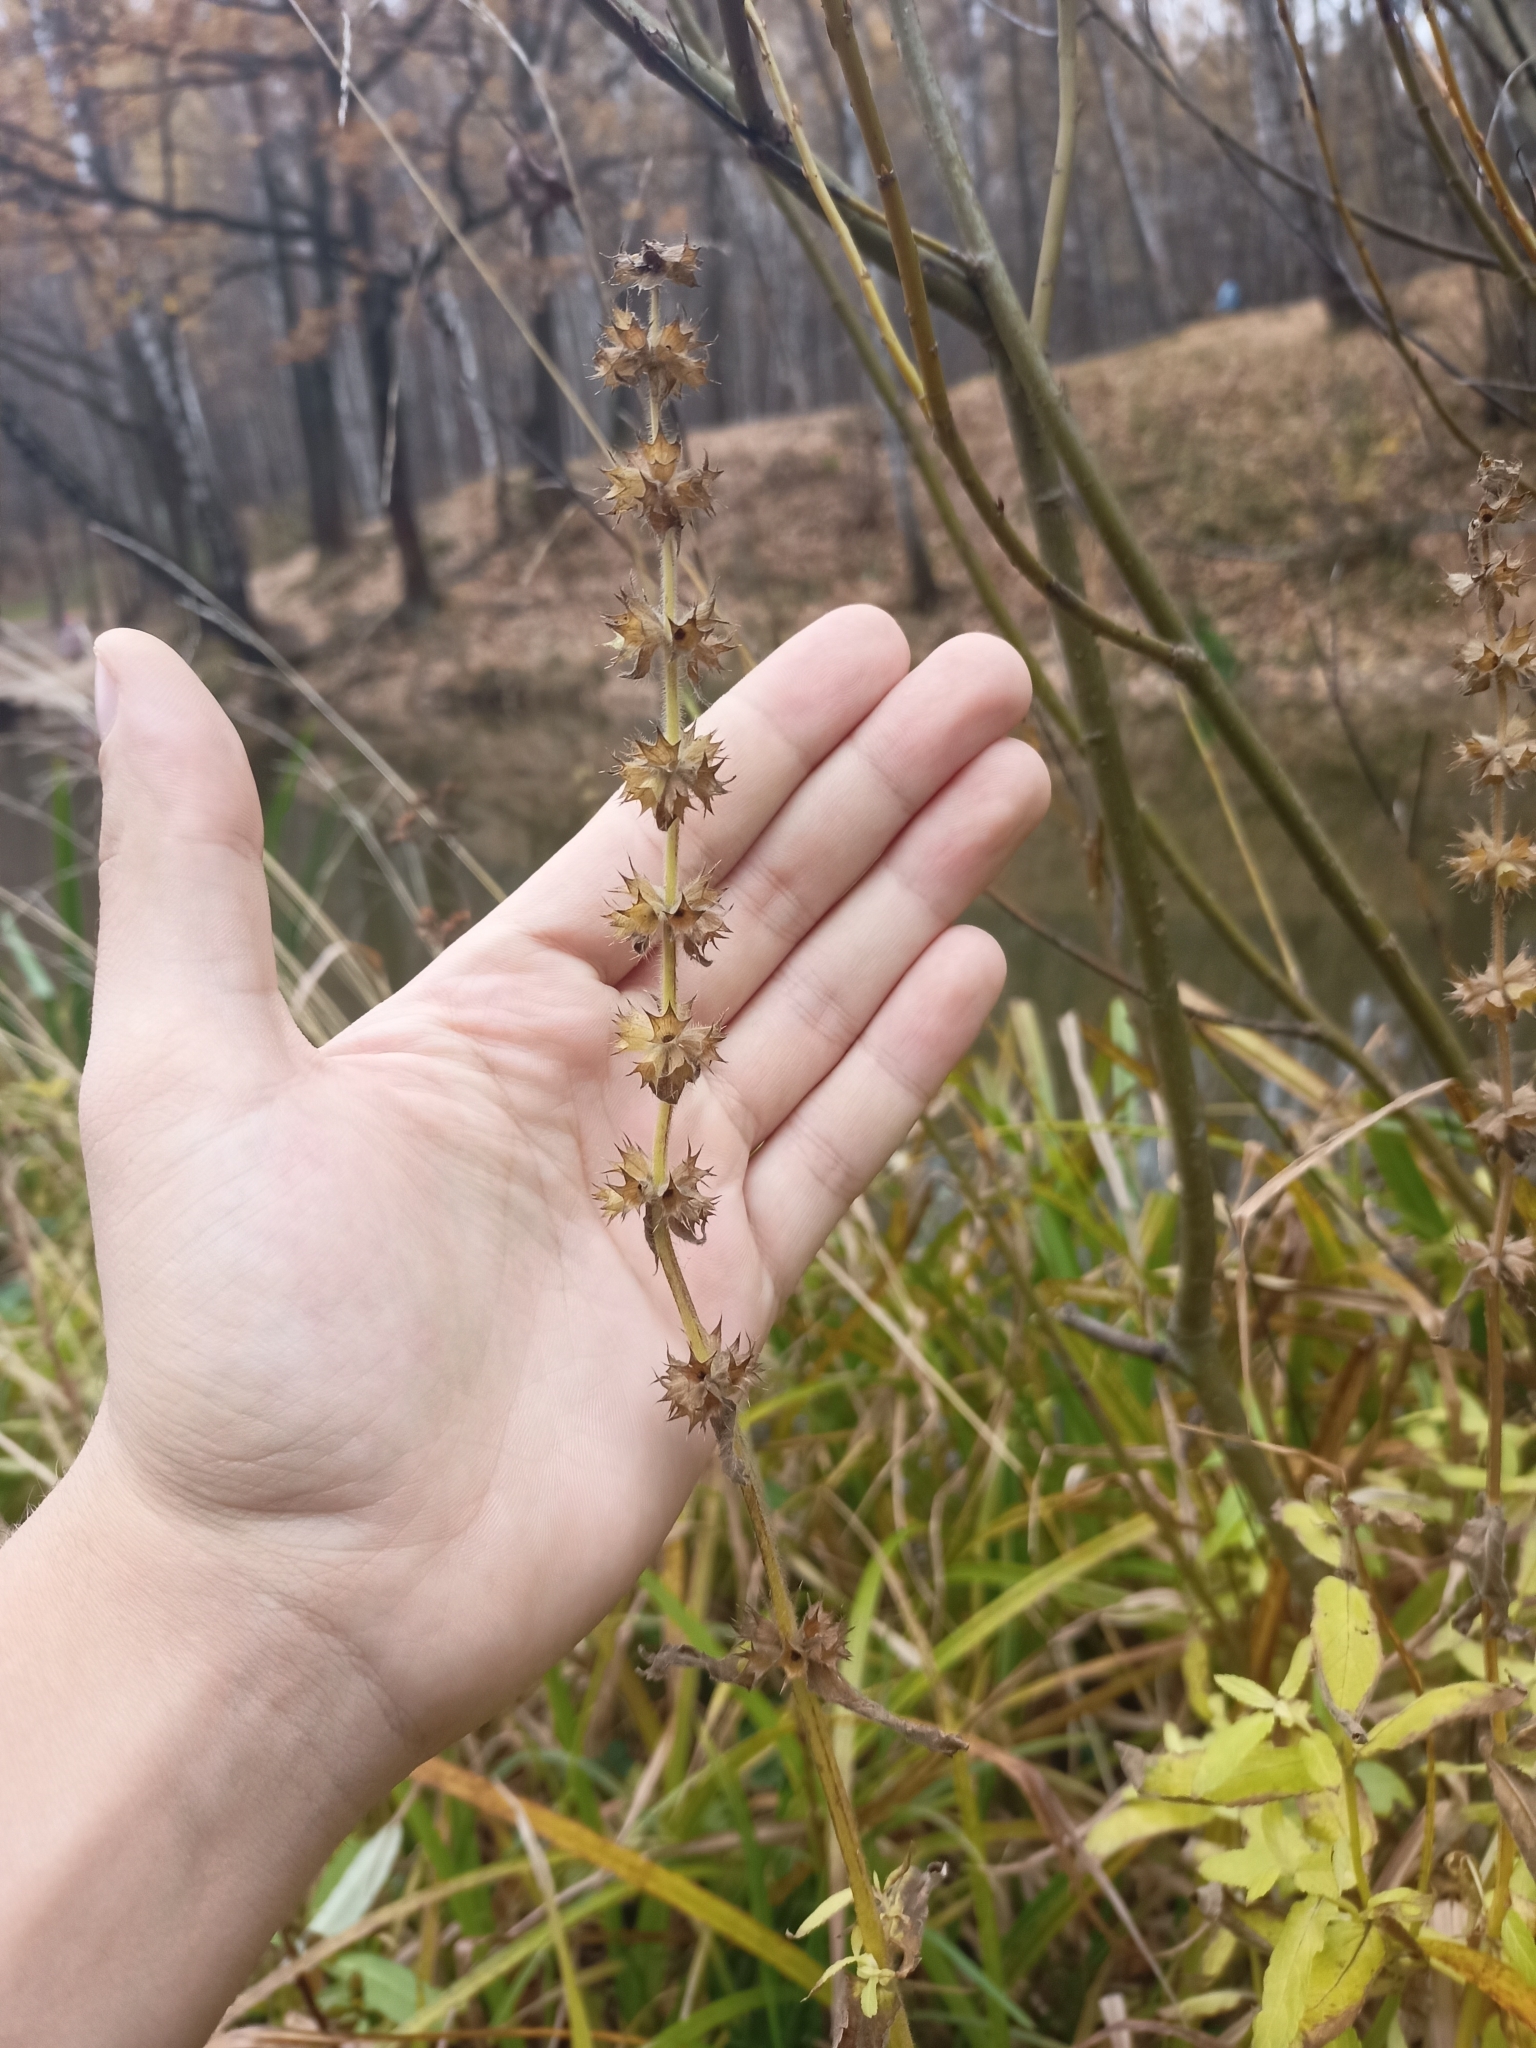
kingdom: Plantae
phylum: Tracheophyta
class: Magnoliopsida
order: Lamiales
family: Lamiaceae
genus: Stachys
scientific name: Stachys palustris
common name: Marsh woundwort
